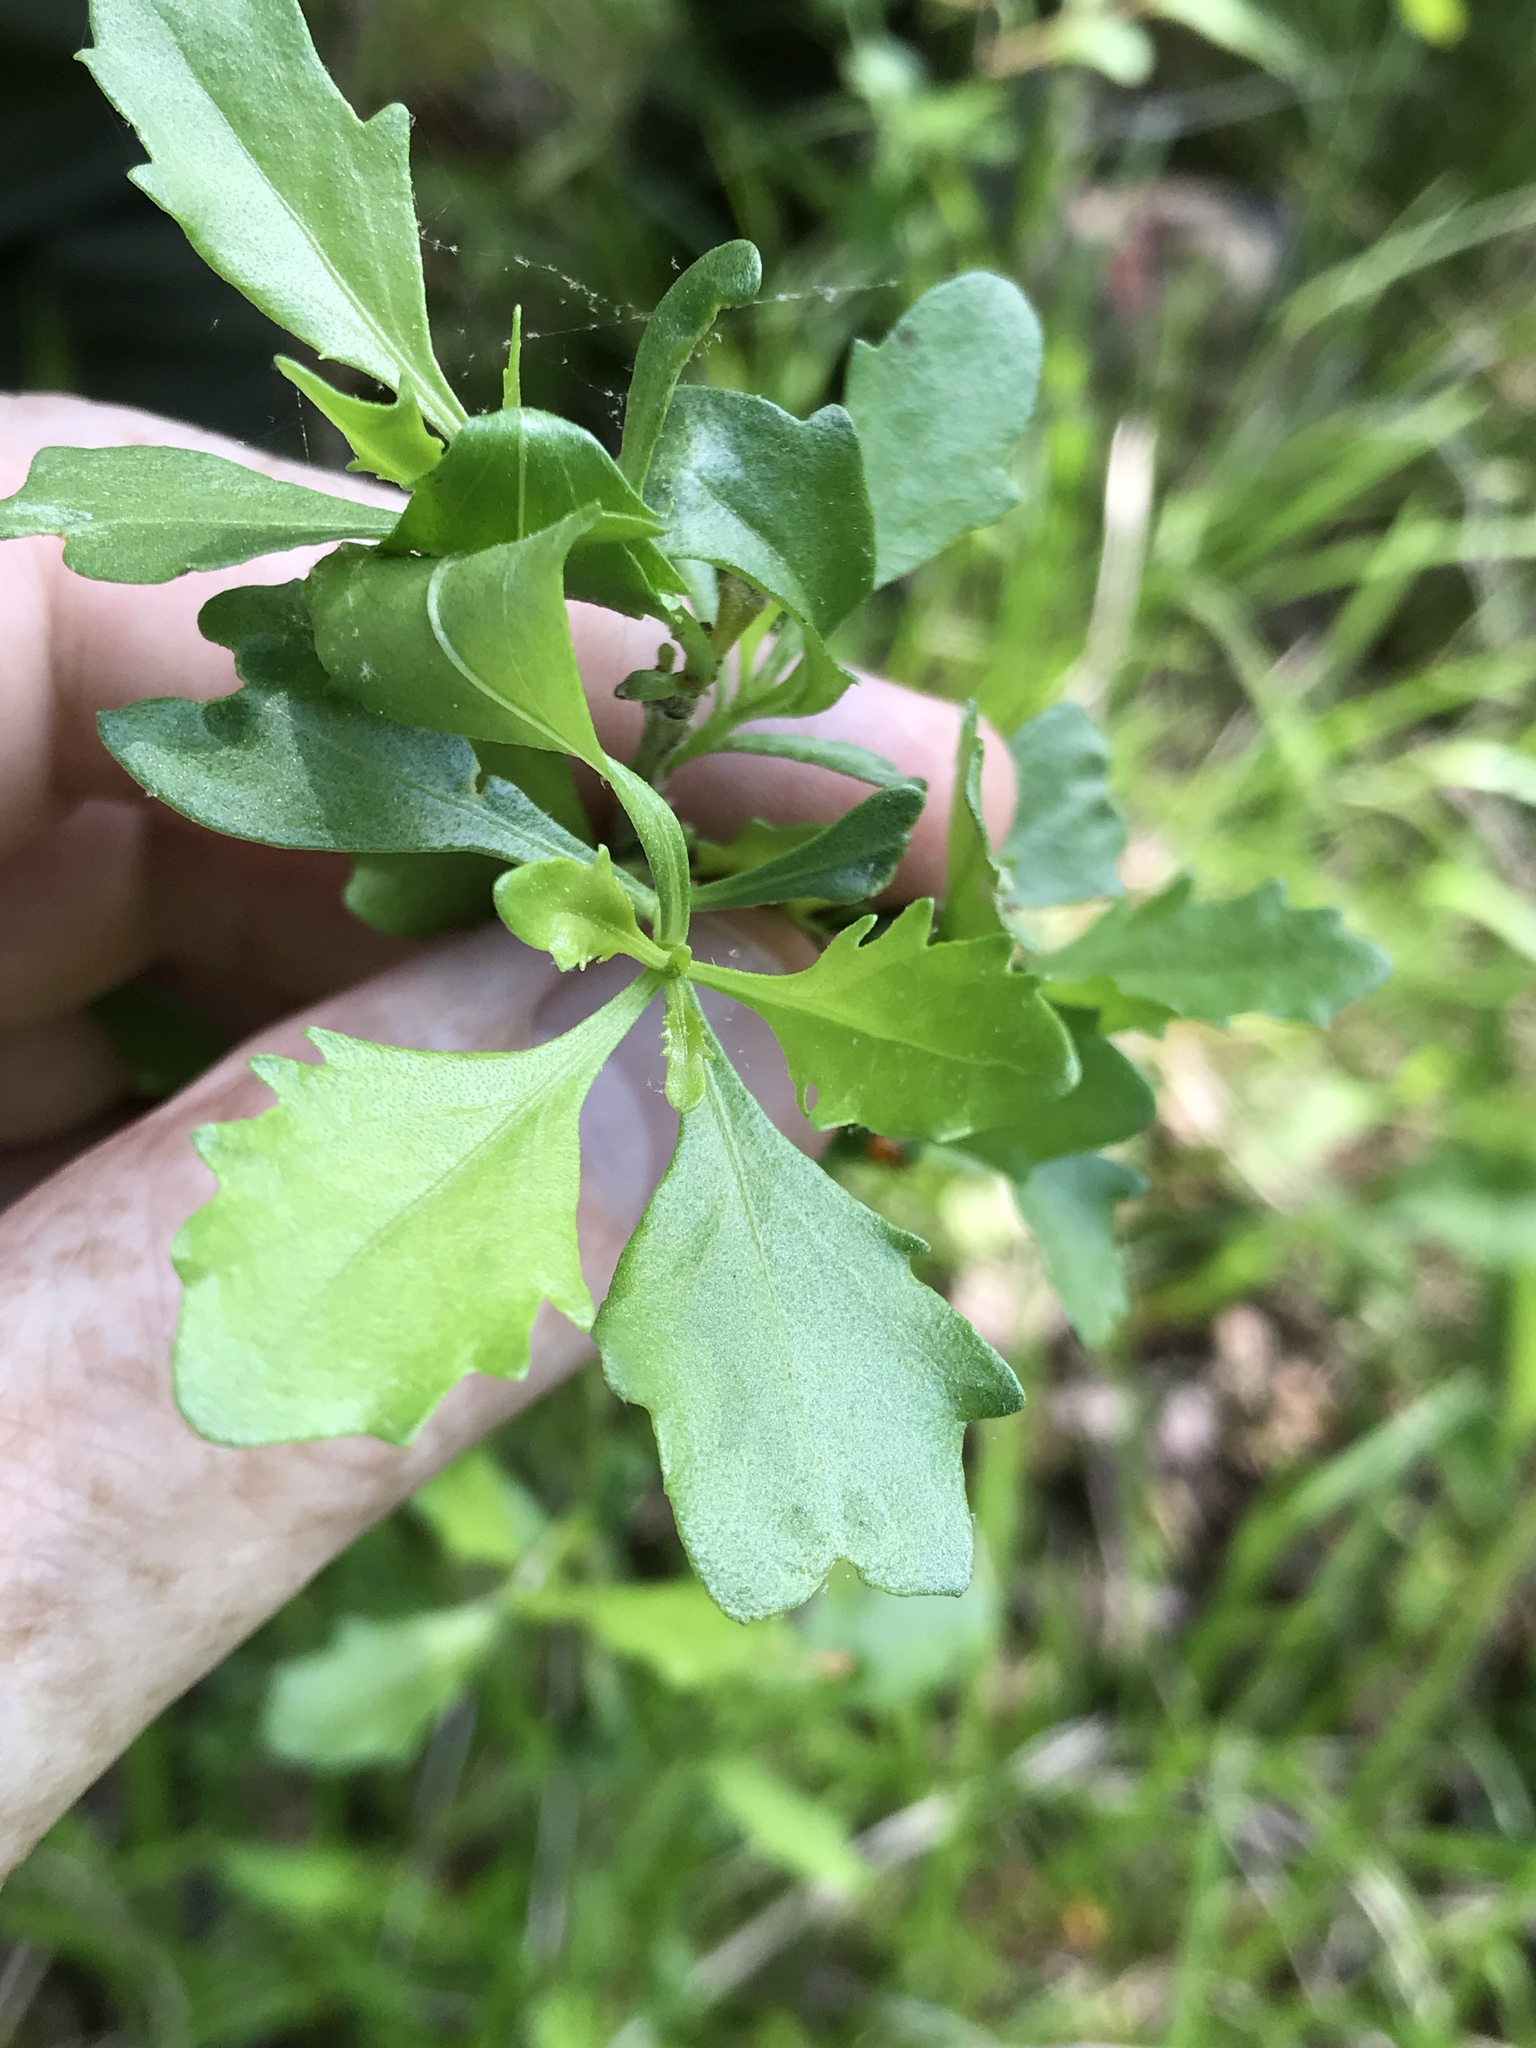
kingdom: Plantae
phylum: Tracheophyta
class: Magnoliopsida
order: Asterales
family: Asteraceae
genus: Baccharis
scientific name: Baccharis halimifolia
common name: Eastern baccharis
